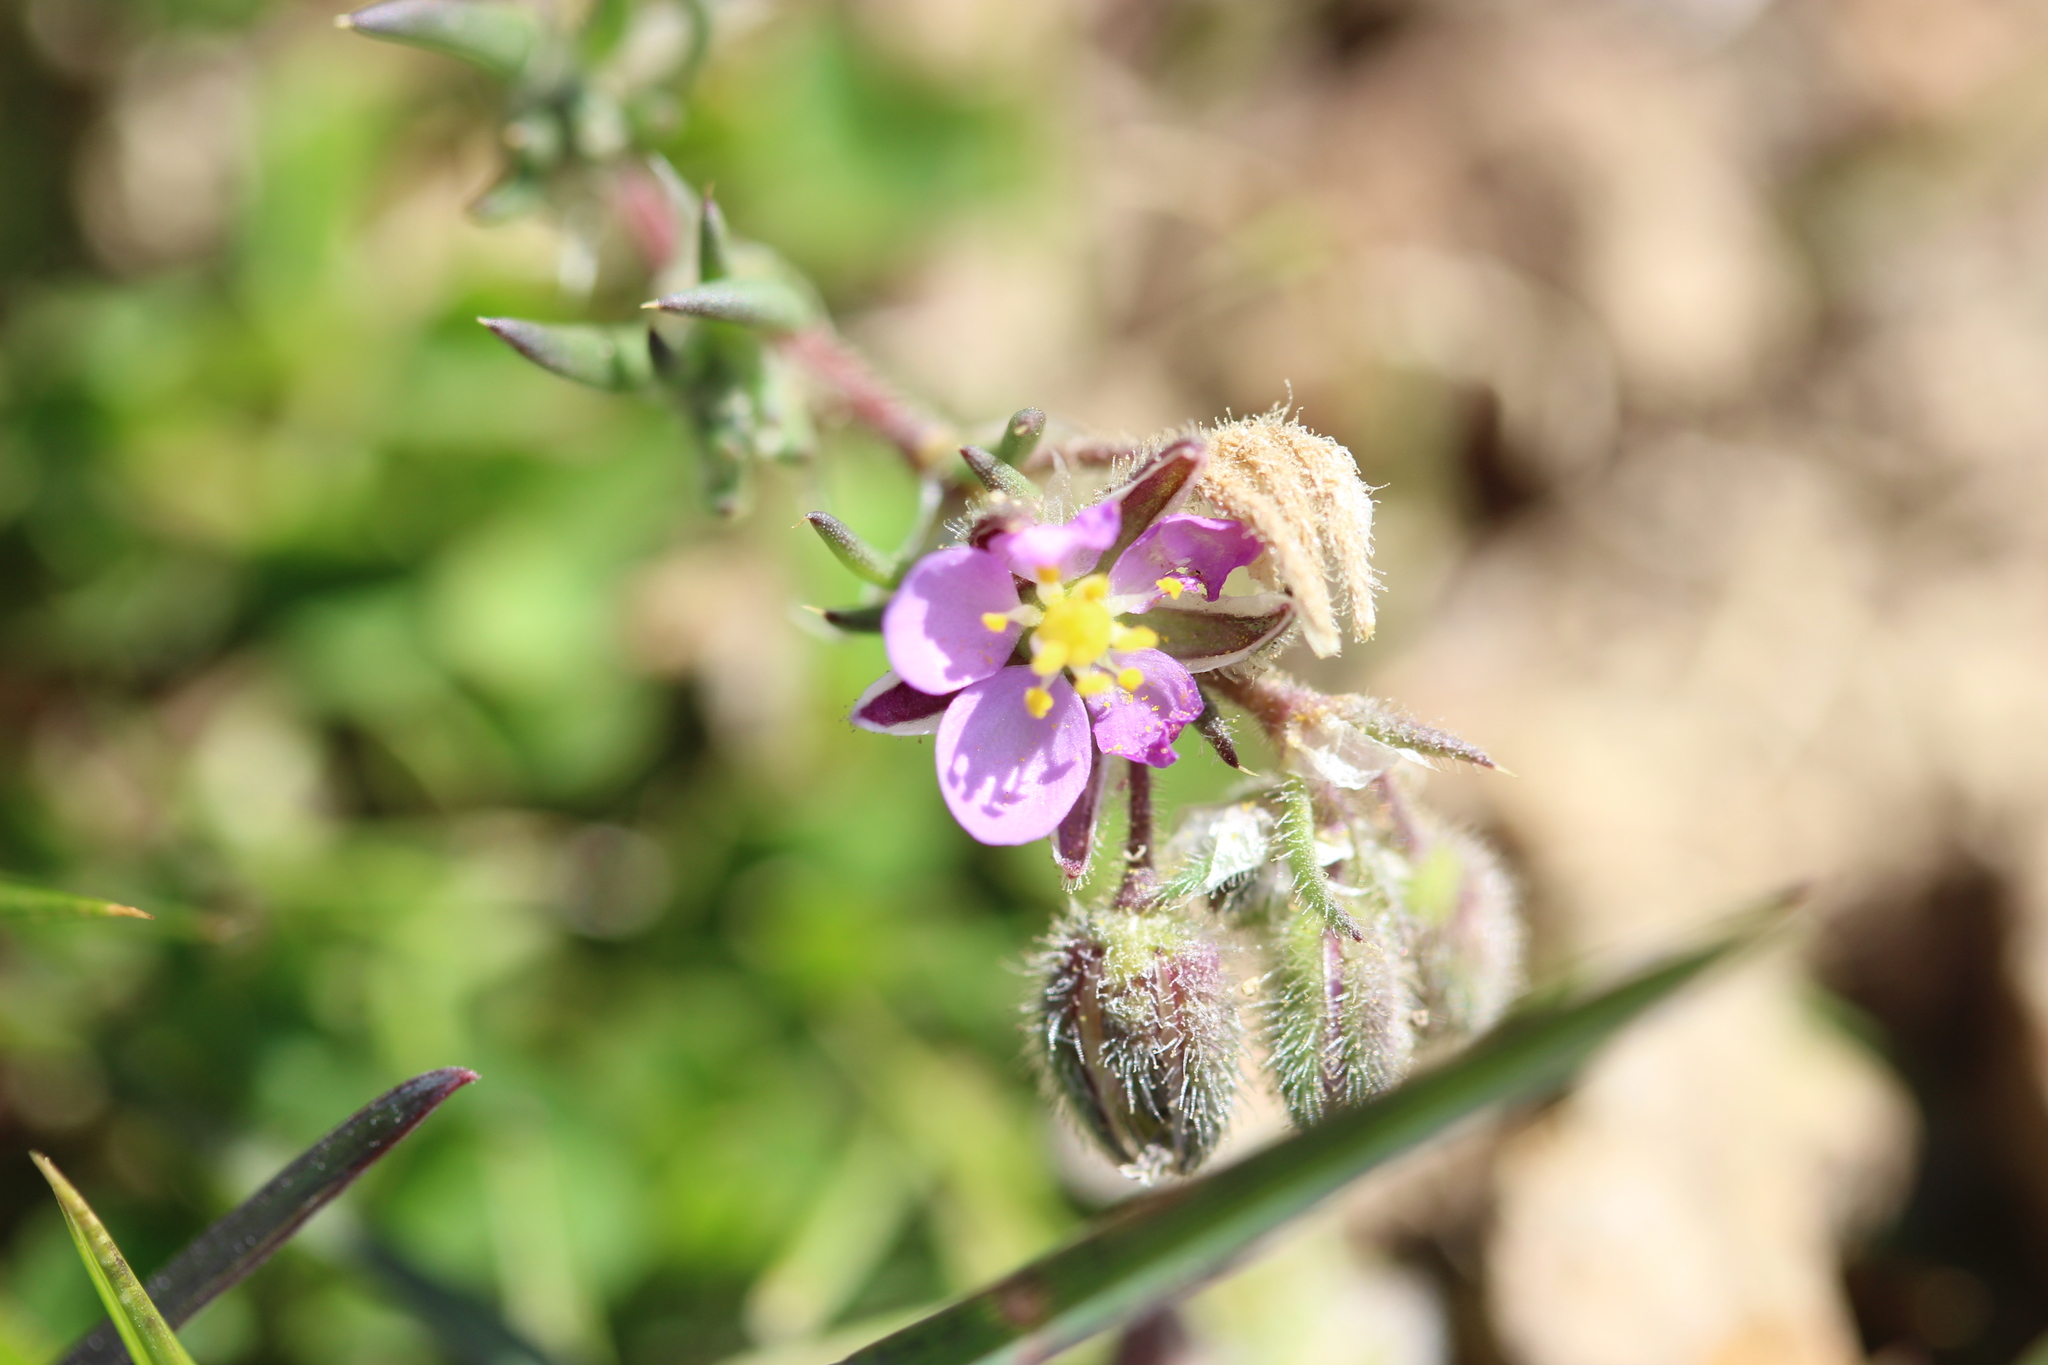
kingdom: Plantae
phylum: Tracheophyta
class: Magnoliopsida
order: Caryophyllales
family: Caryophyllaceae
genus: Spergularia
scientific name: Spergularia rubra
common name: Red sand-spurrey
